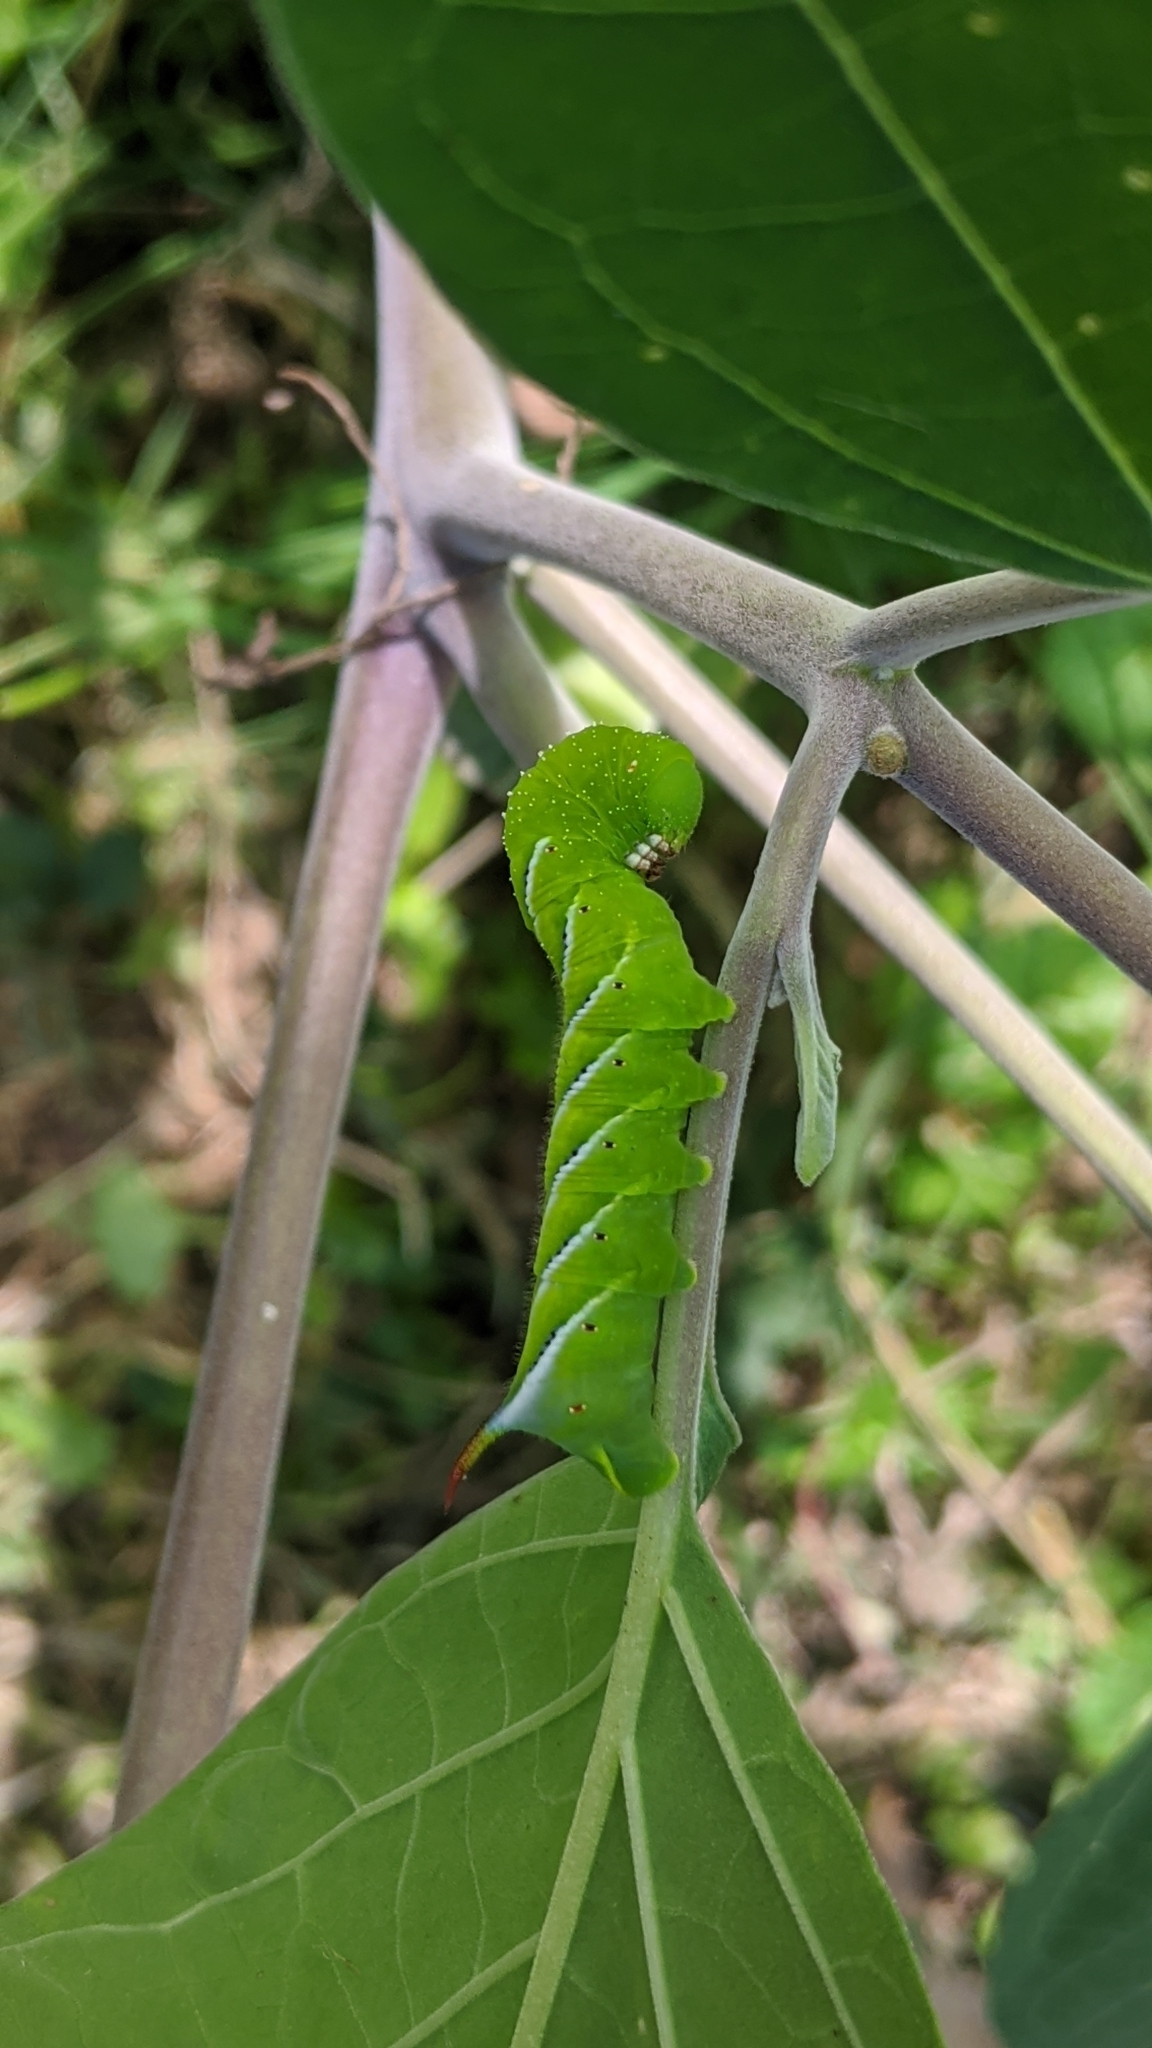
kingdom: Animalia
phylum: Arthropoda
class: Insecta
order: Lepidoptera
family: Sphingidae
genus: Manduca
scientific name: Manduca sexta
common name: Carolina sphinx
